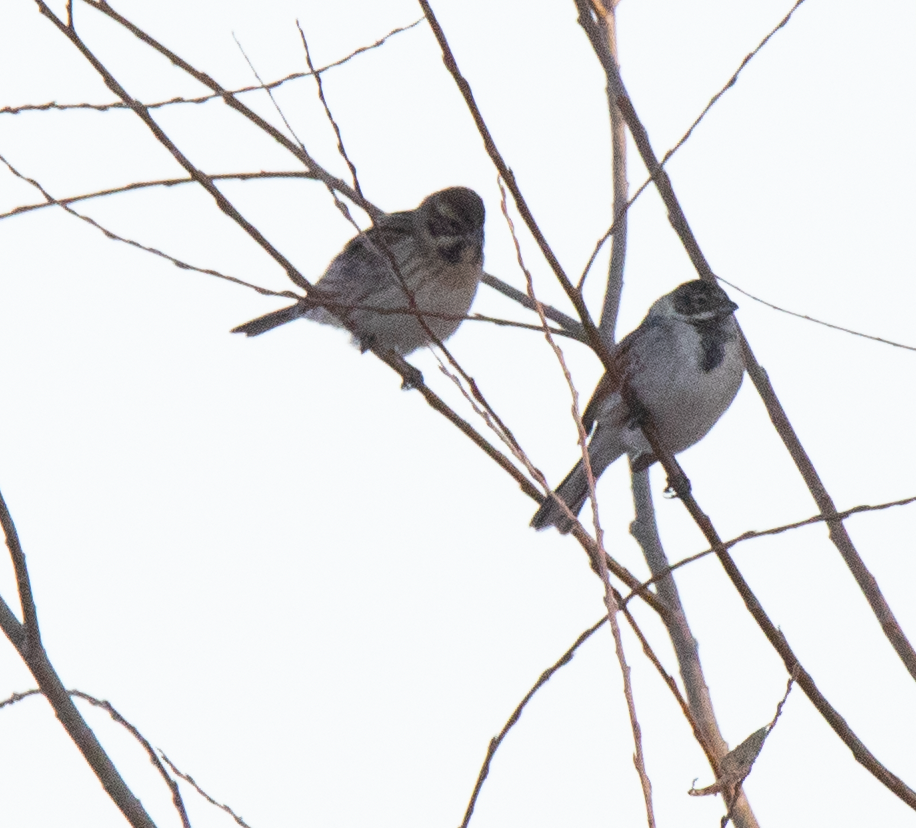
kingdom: Animalia
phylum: Chordata
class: Aves
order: Passeriformes
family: Emberizidae
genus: Emberiza
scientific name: Emberiza schoeniclus
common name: Reed bunting
